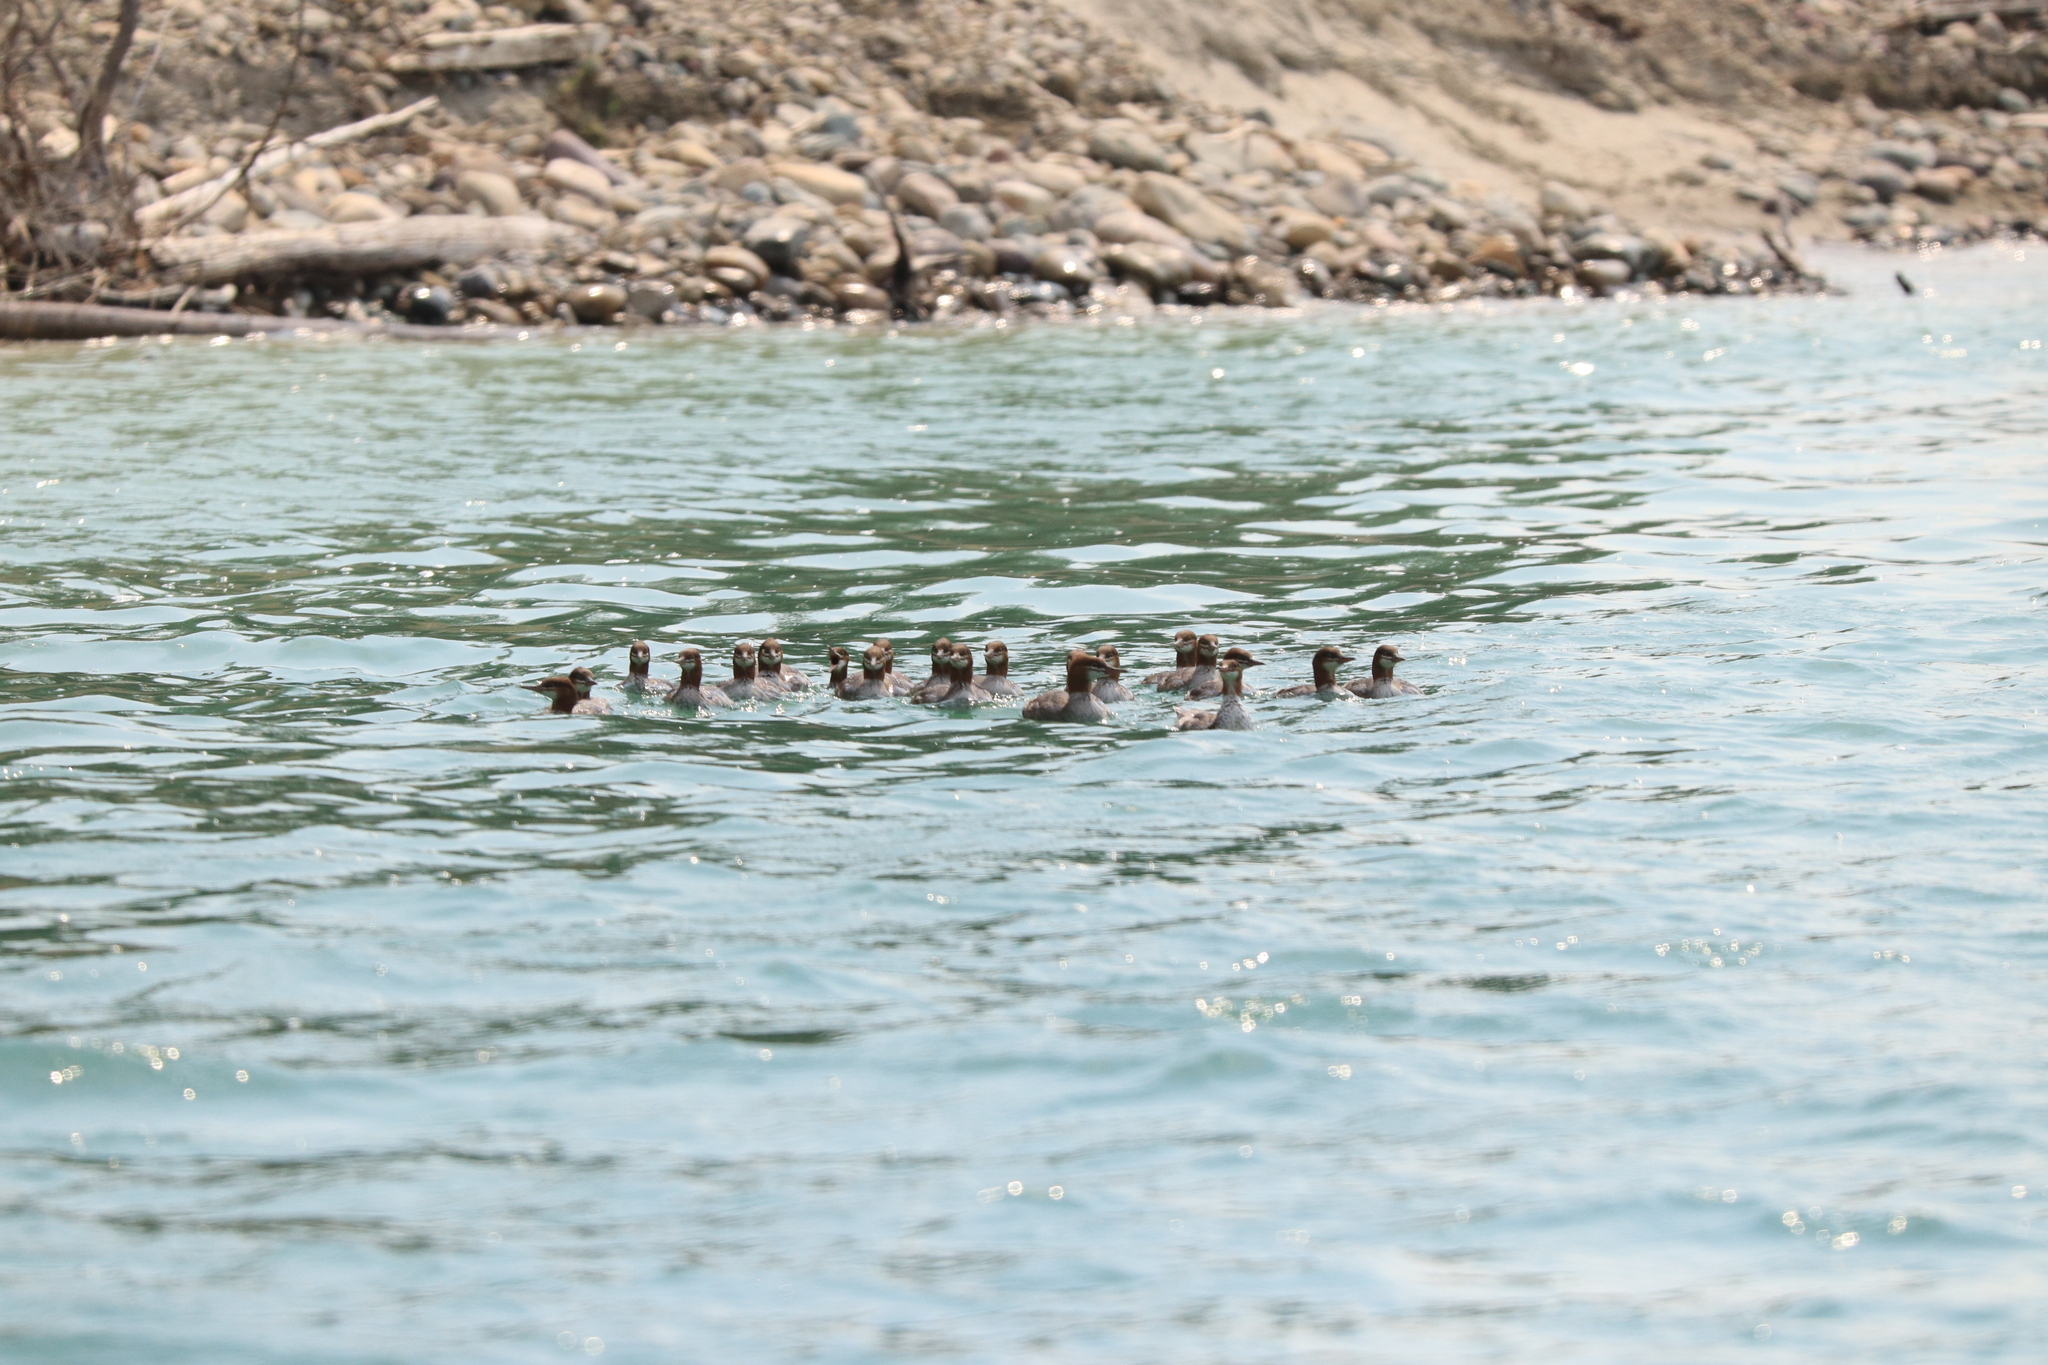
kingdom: Animalia
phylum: Chordata
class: Aves
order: Anseriformes
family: Anatidae
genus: Mergus
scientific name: Mergus merganser
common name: Common merganser
